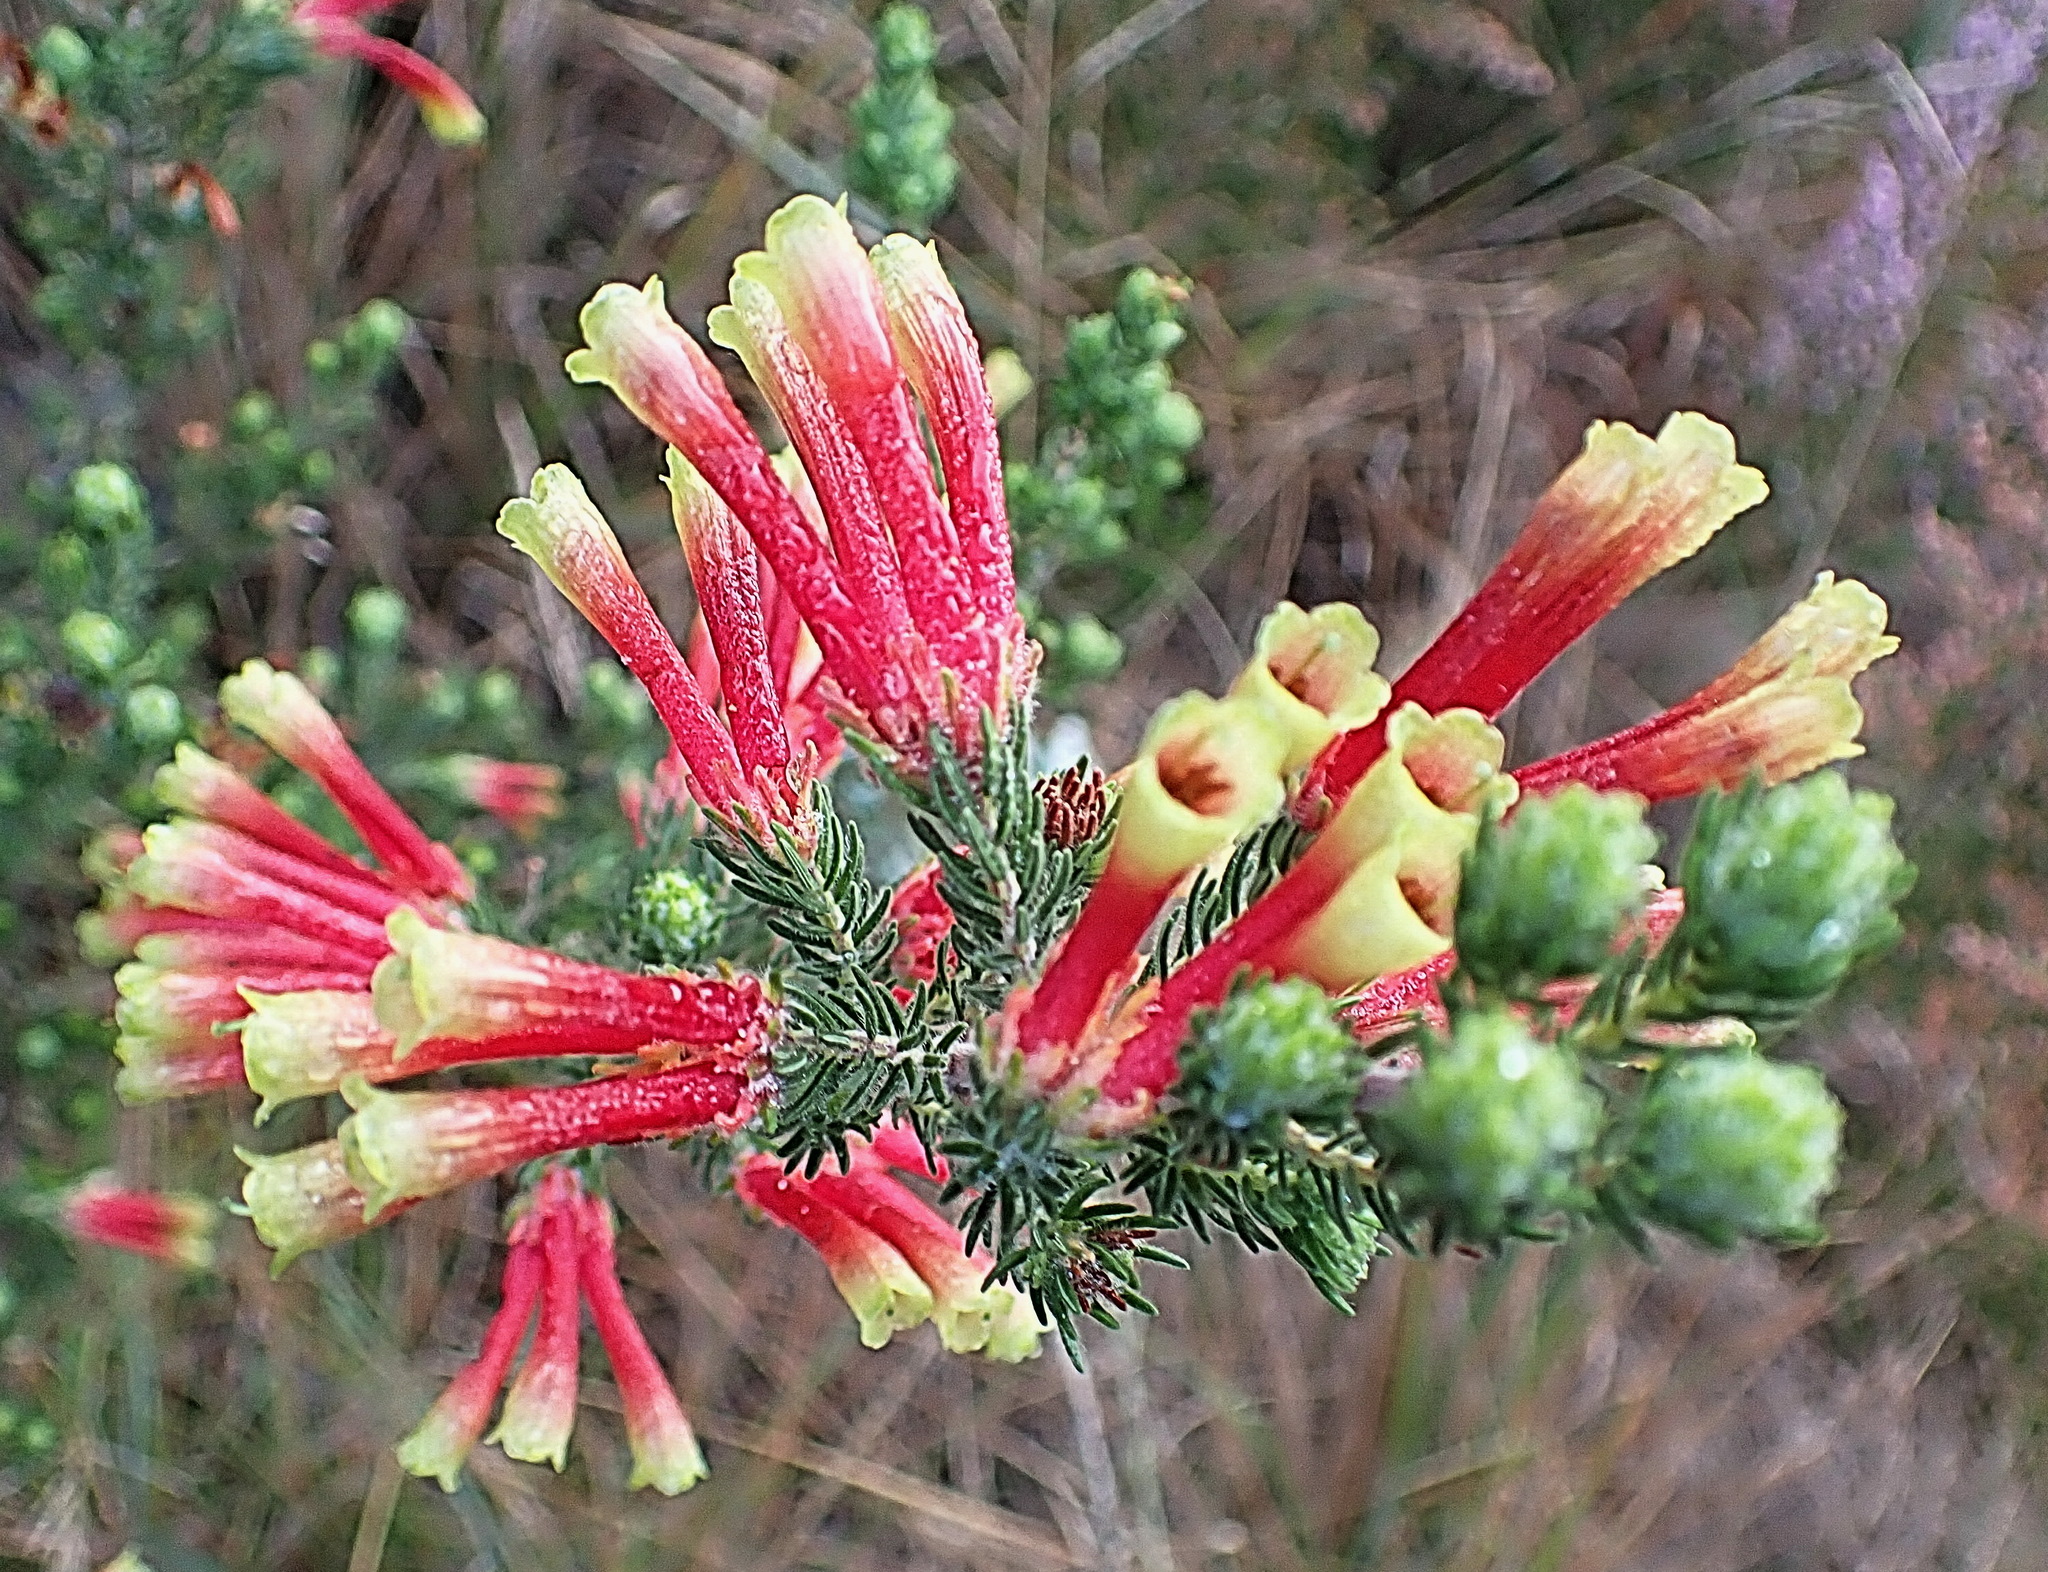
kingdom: Plantae
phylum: Tracheophyta
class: Magnoliopsida
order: Ericales
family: Ericaceae
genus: Erica
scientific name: Erica unicolor
